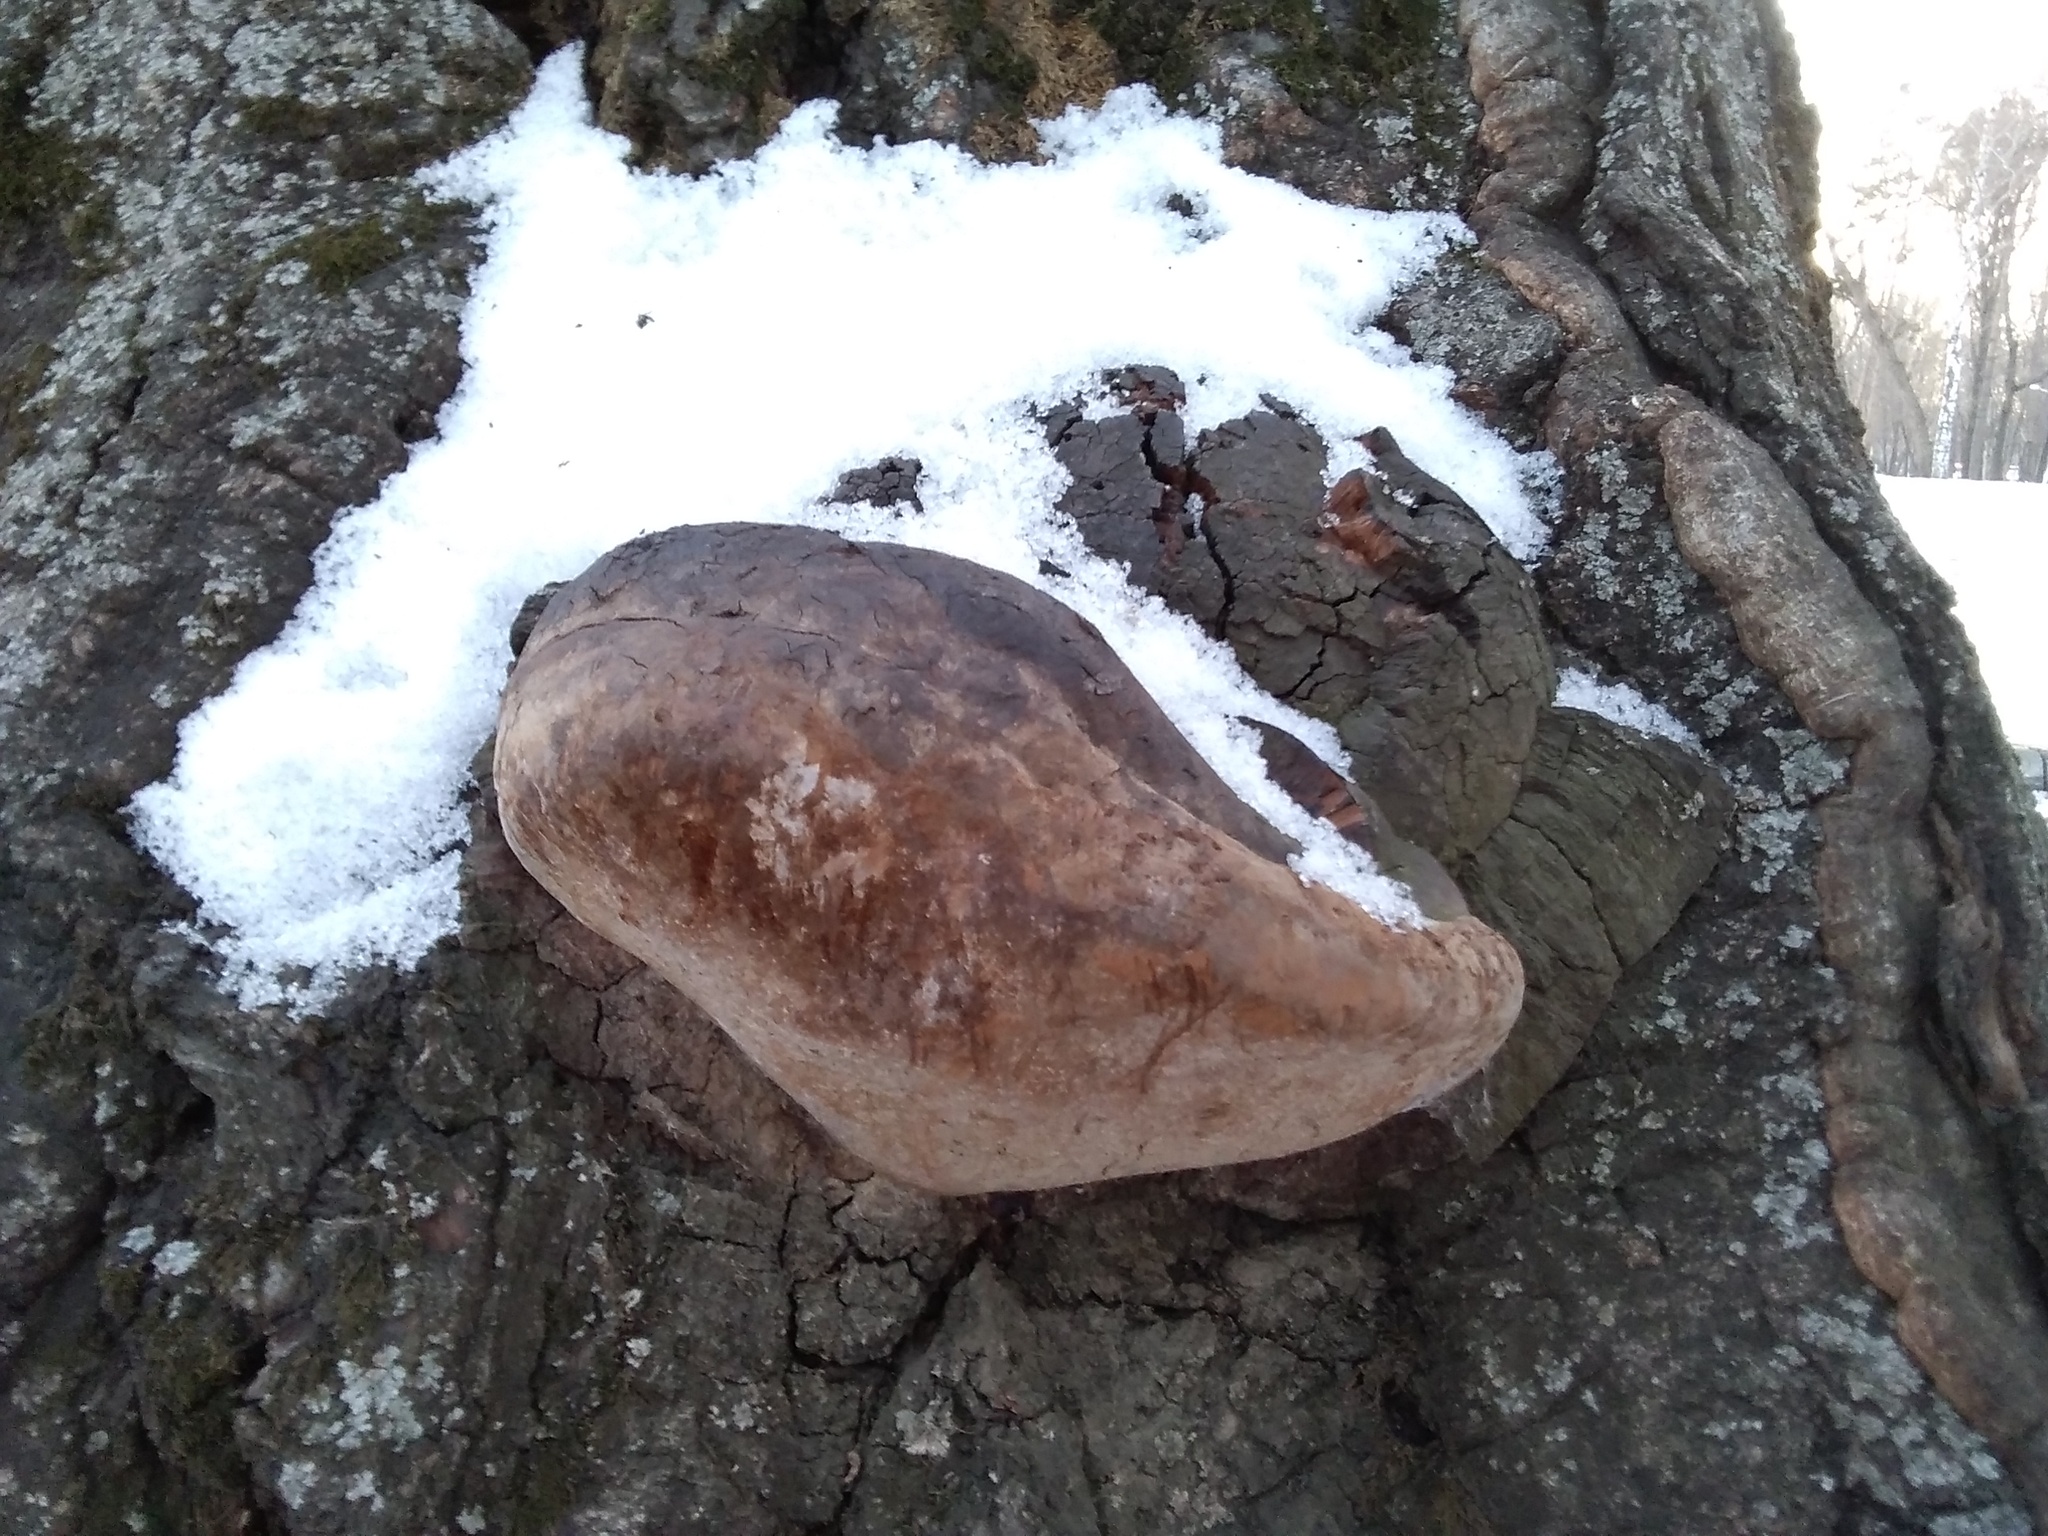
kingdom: Fungi
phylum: Basidiomycota
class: Agaricomycetes
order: Hymenochaetales
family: Hymenochaetaceae
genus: Fomitiporia
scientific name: Fomitiporia robusta
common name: Robust bracket
